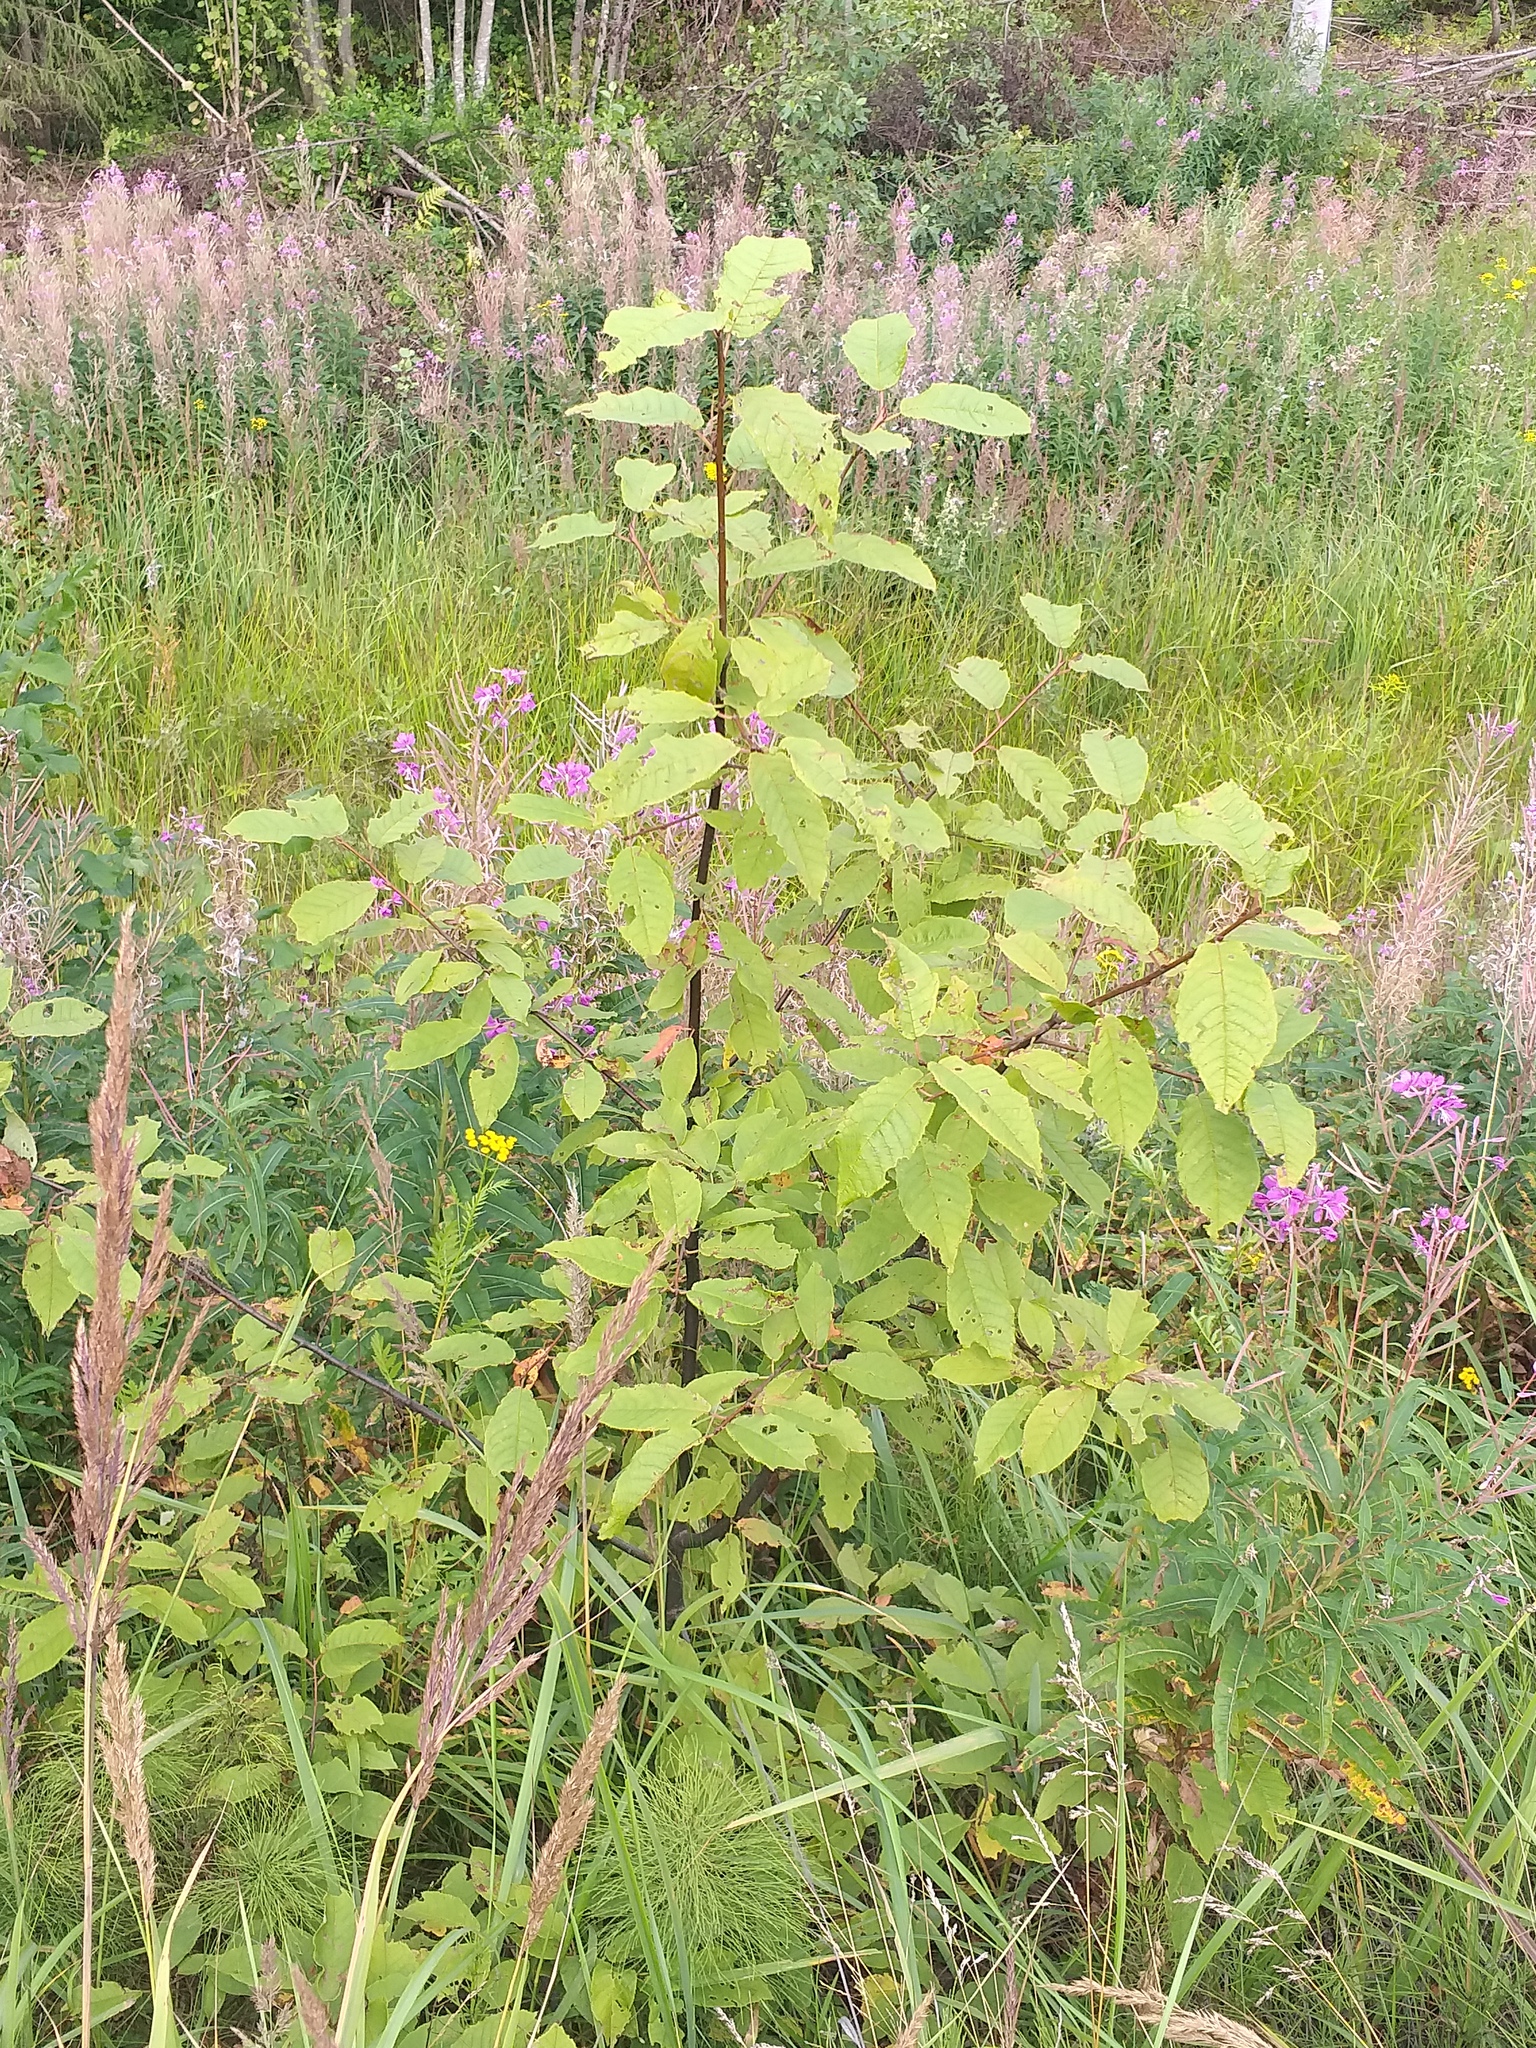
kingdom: Plantae
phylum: Tracheophyta
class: Magnoliopsida
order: Rosales
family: Rosaceae
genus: Prunus
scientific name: Prunus padus
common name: Bird cherry
